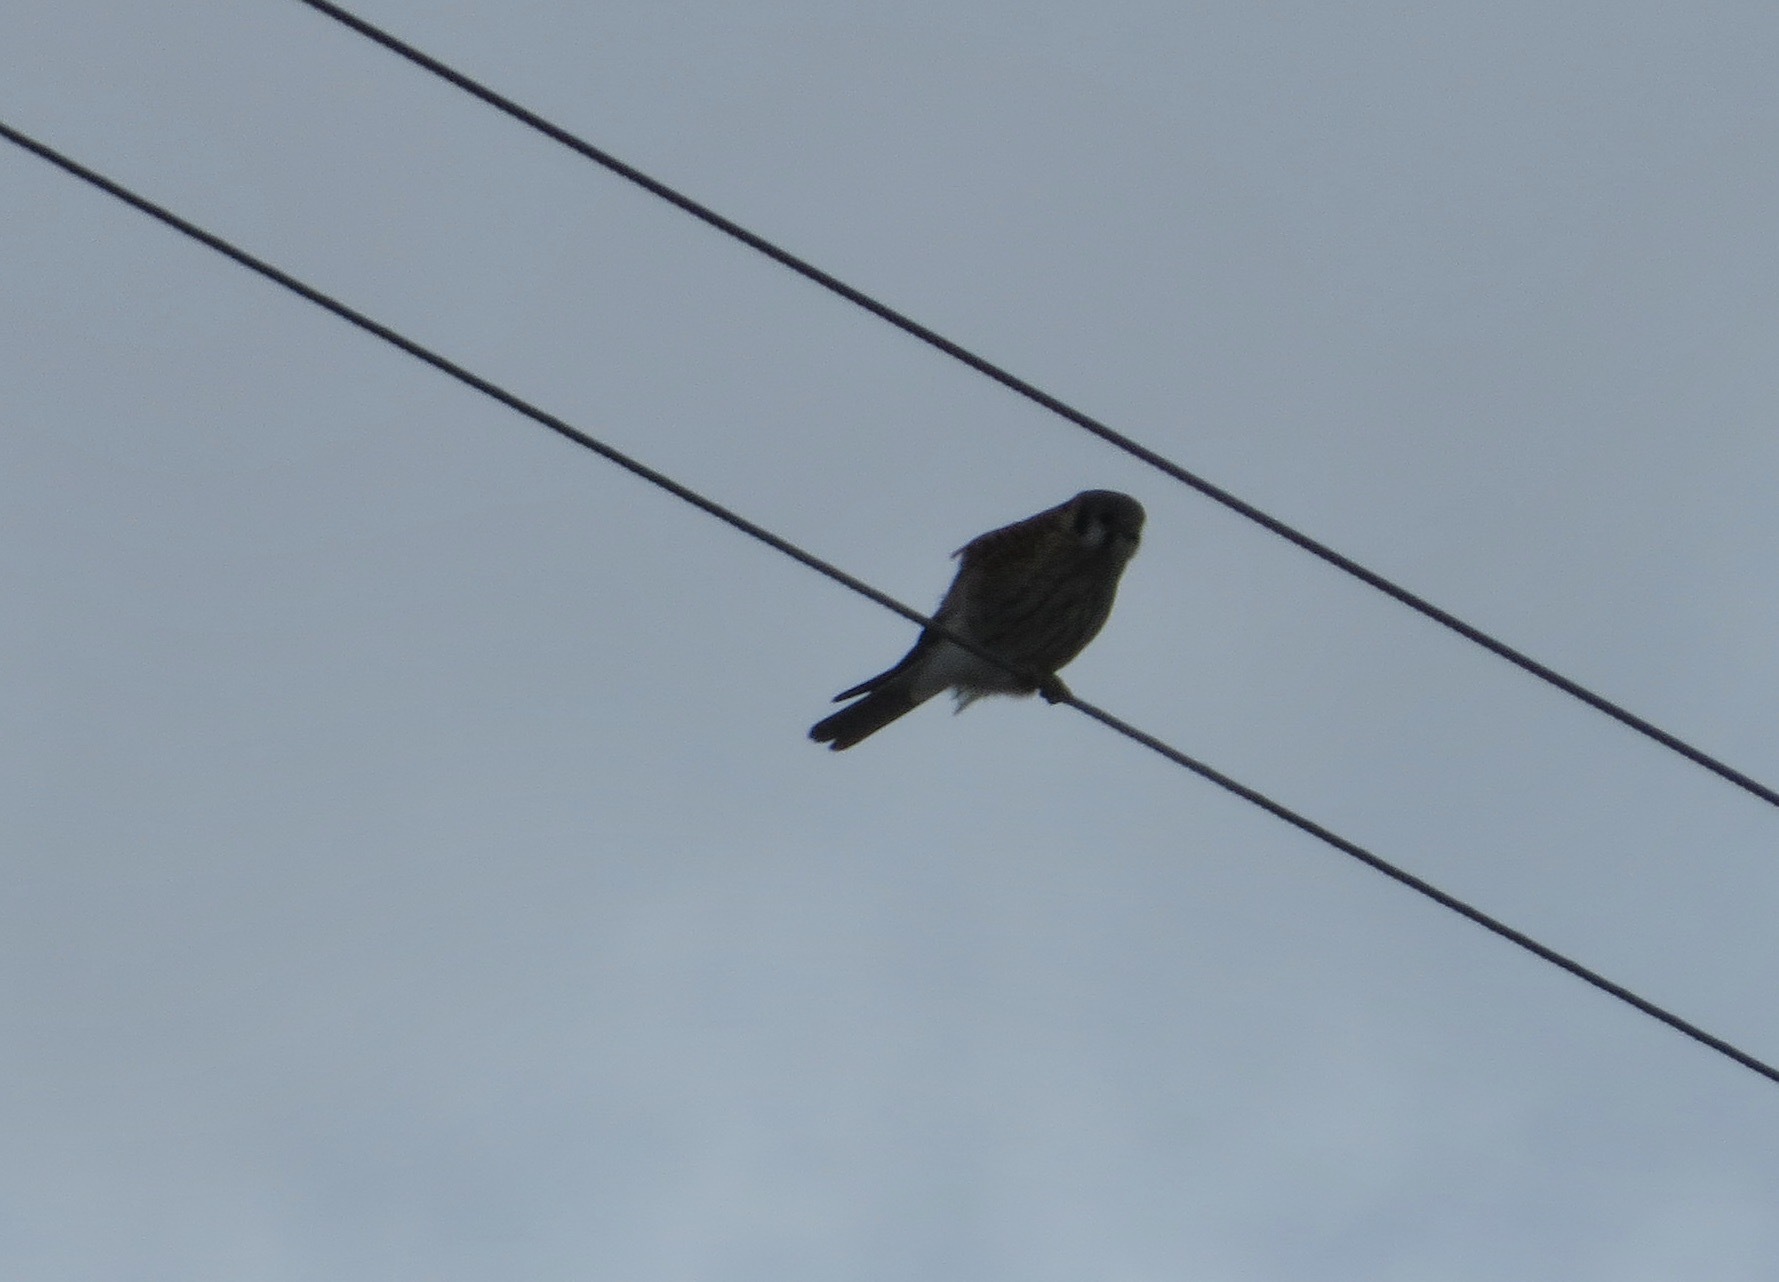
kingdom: Animalia
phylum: Chordata
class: Aves
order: Falconiformes
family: Falconidae
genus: Falco
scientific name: Falco sparverius
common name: American kestrel
